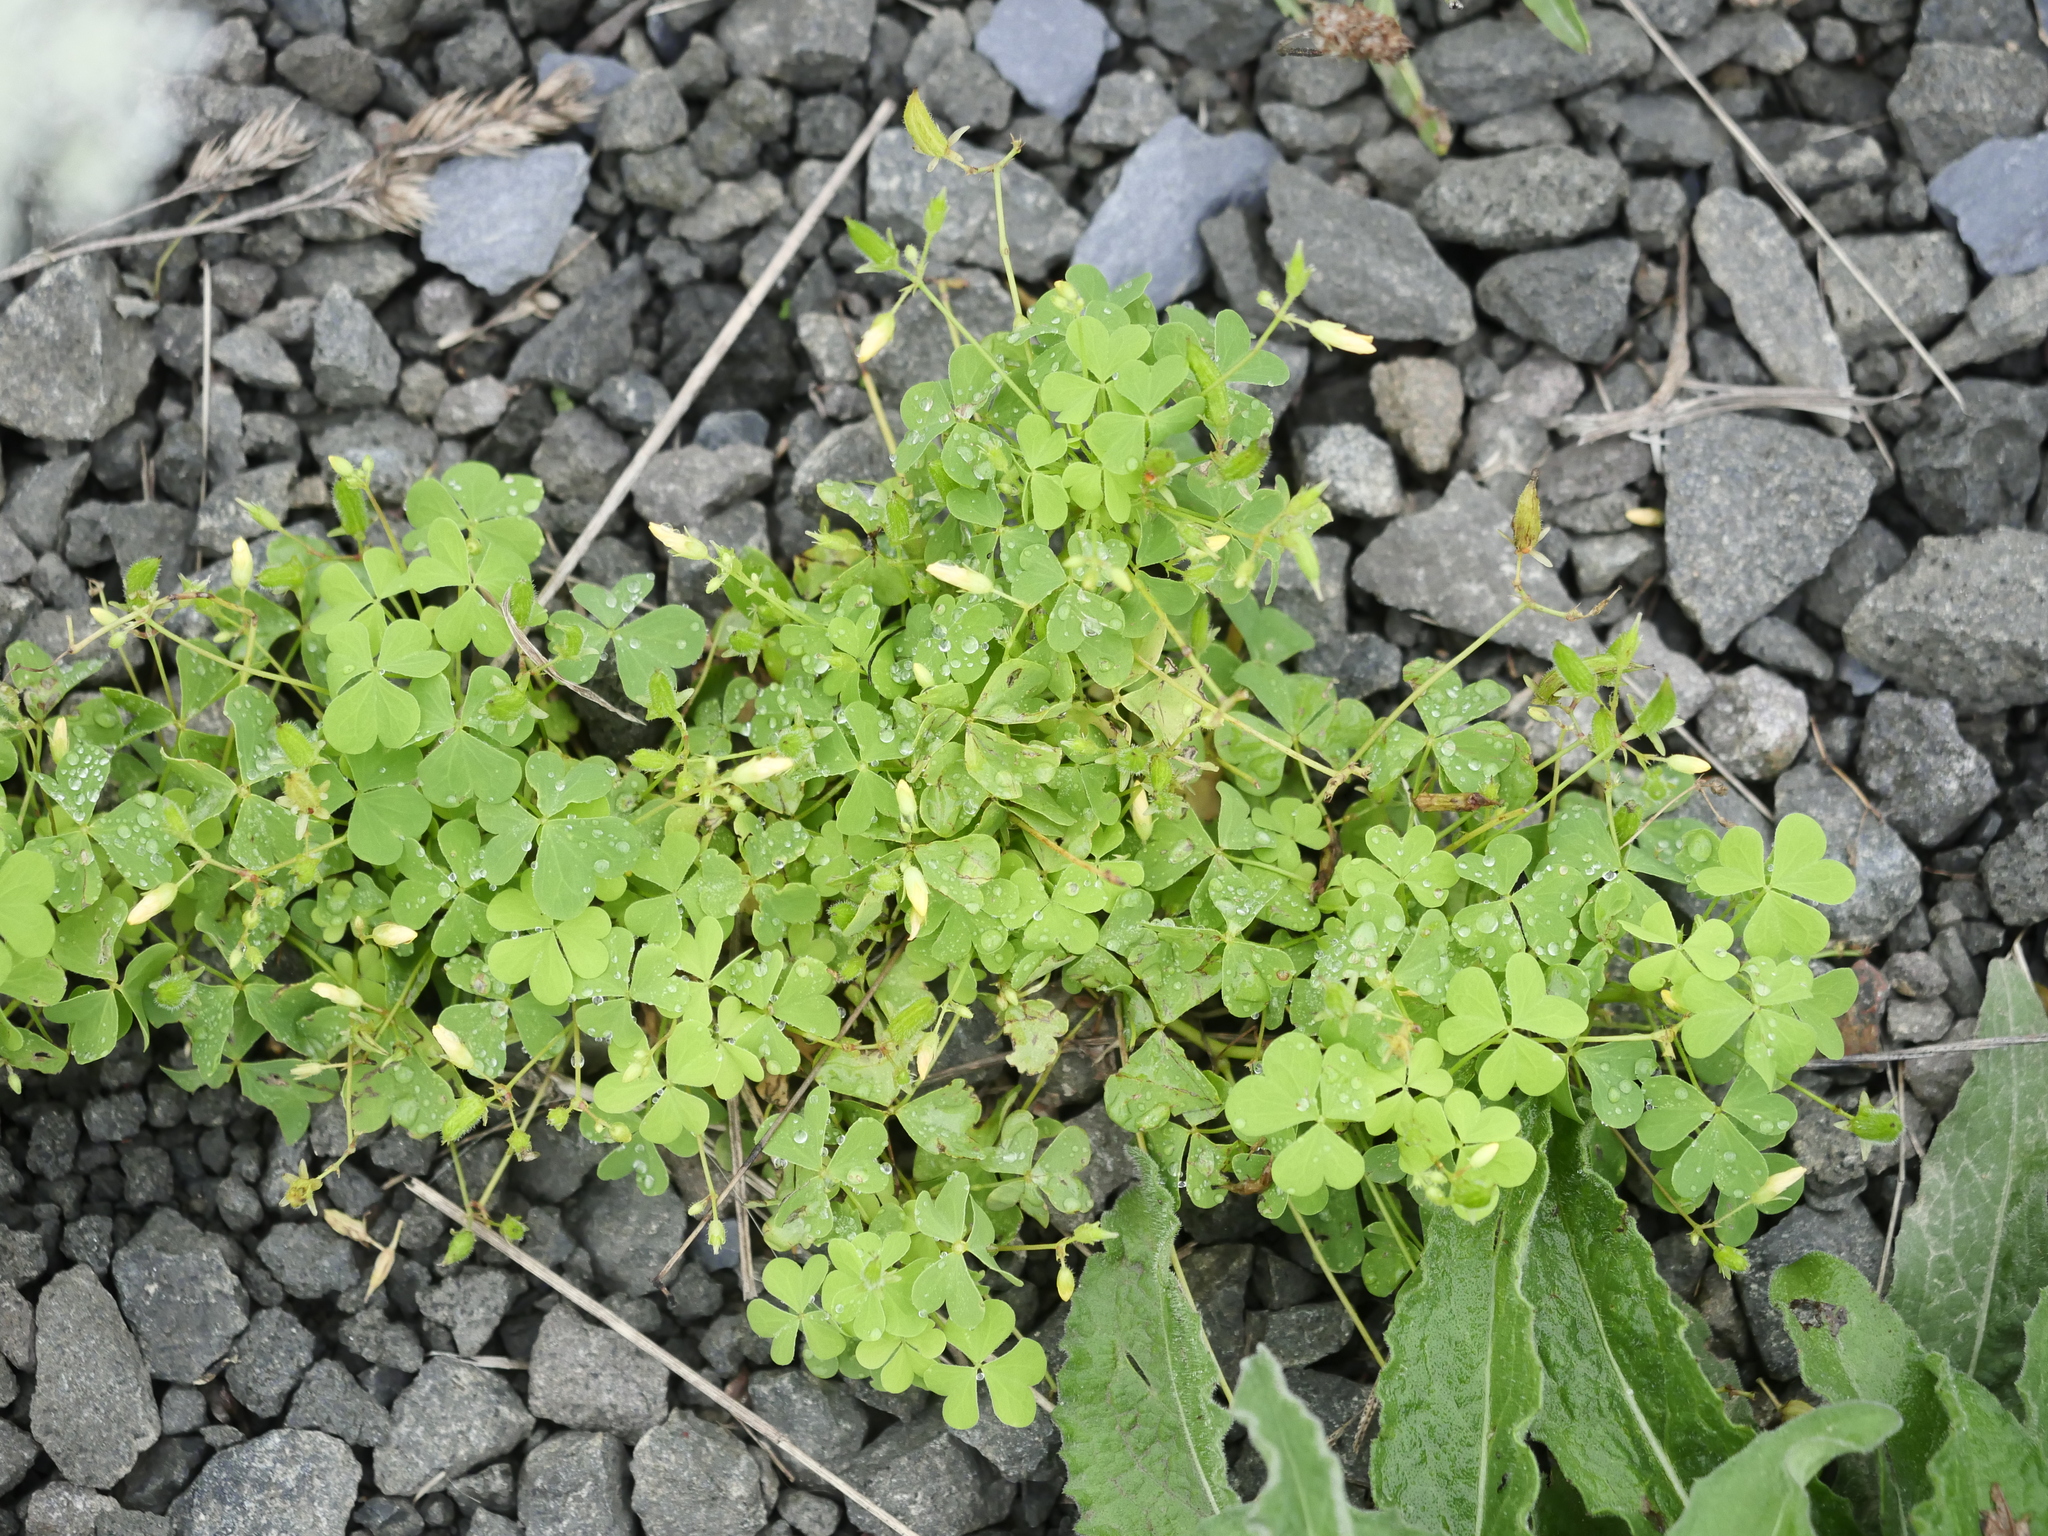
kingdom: Plantae
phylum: Tracheophyta
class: Magnoliopsida
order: Oxalidales
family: Oxalidaceae
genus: Oxalis
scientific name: Oxalis stricta
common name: Upright yellow-sorrel
